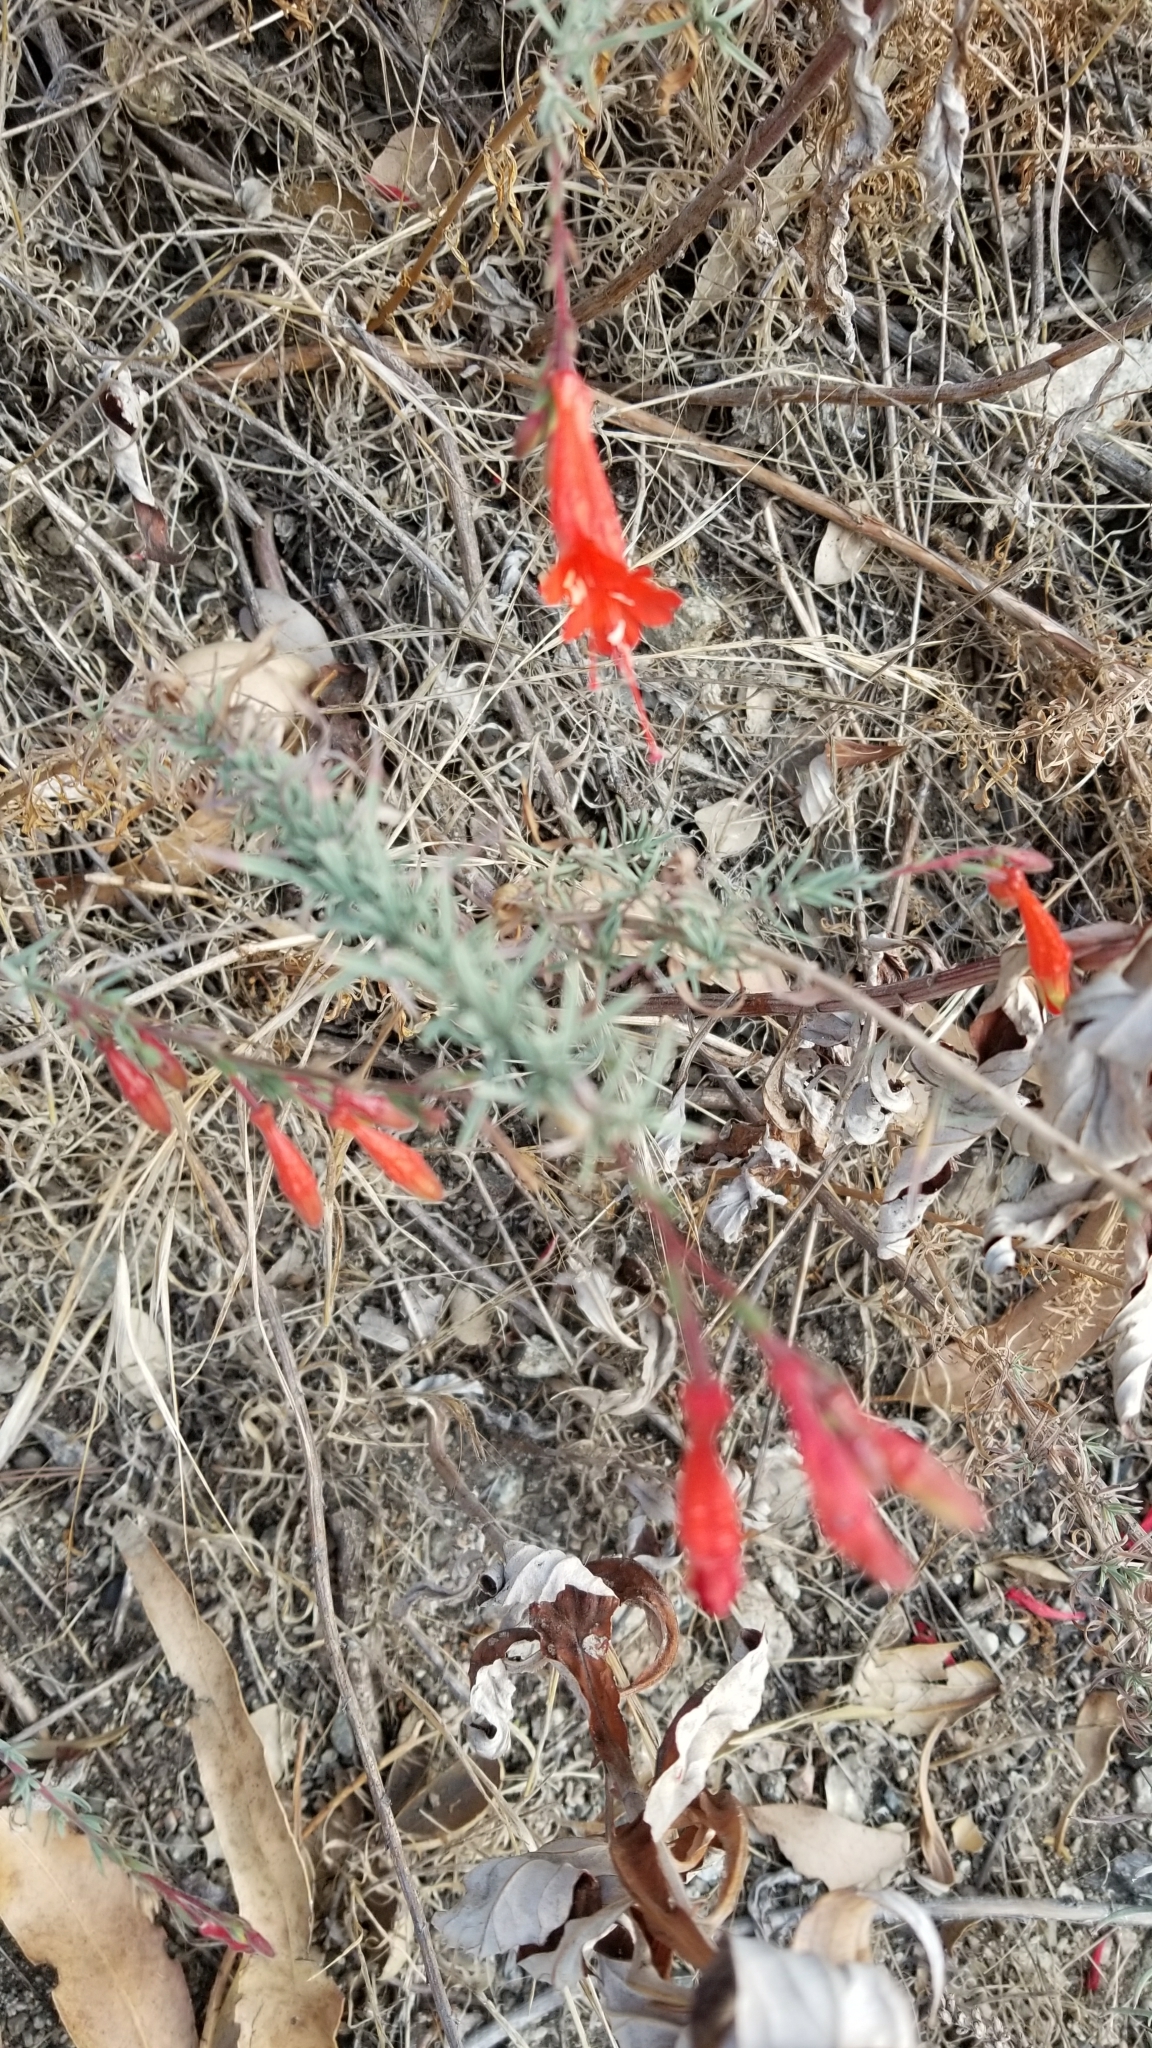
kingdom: Plantae
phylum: Tracheophyta
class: Magnoliopsida
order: Myrtales
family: Onagraceae
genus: Epilobium
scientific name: Epilobium canum
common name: California-fuchsia
